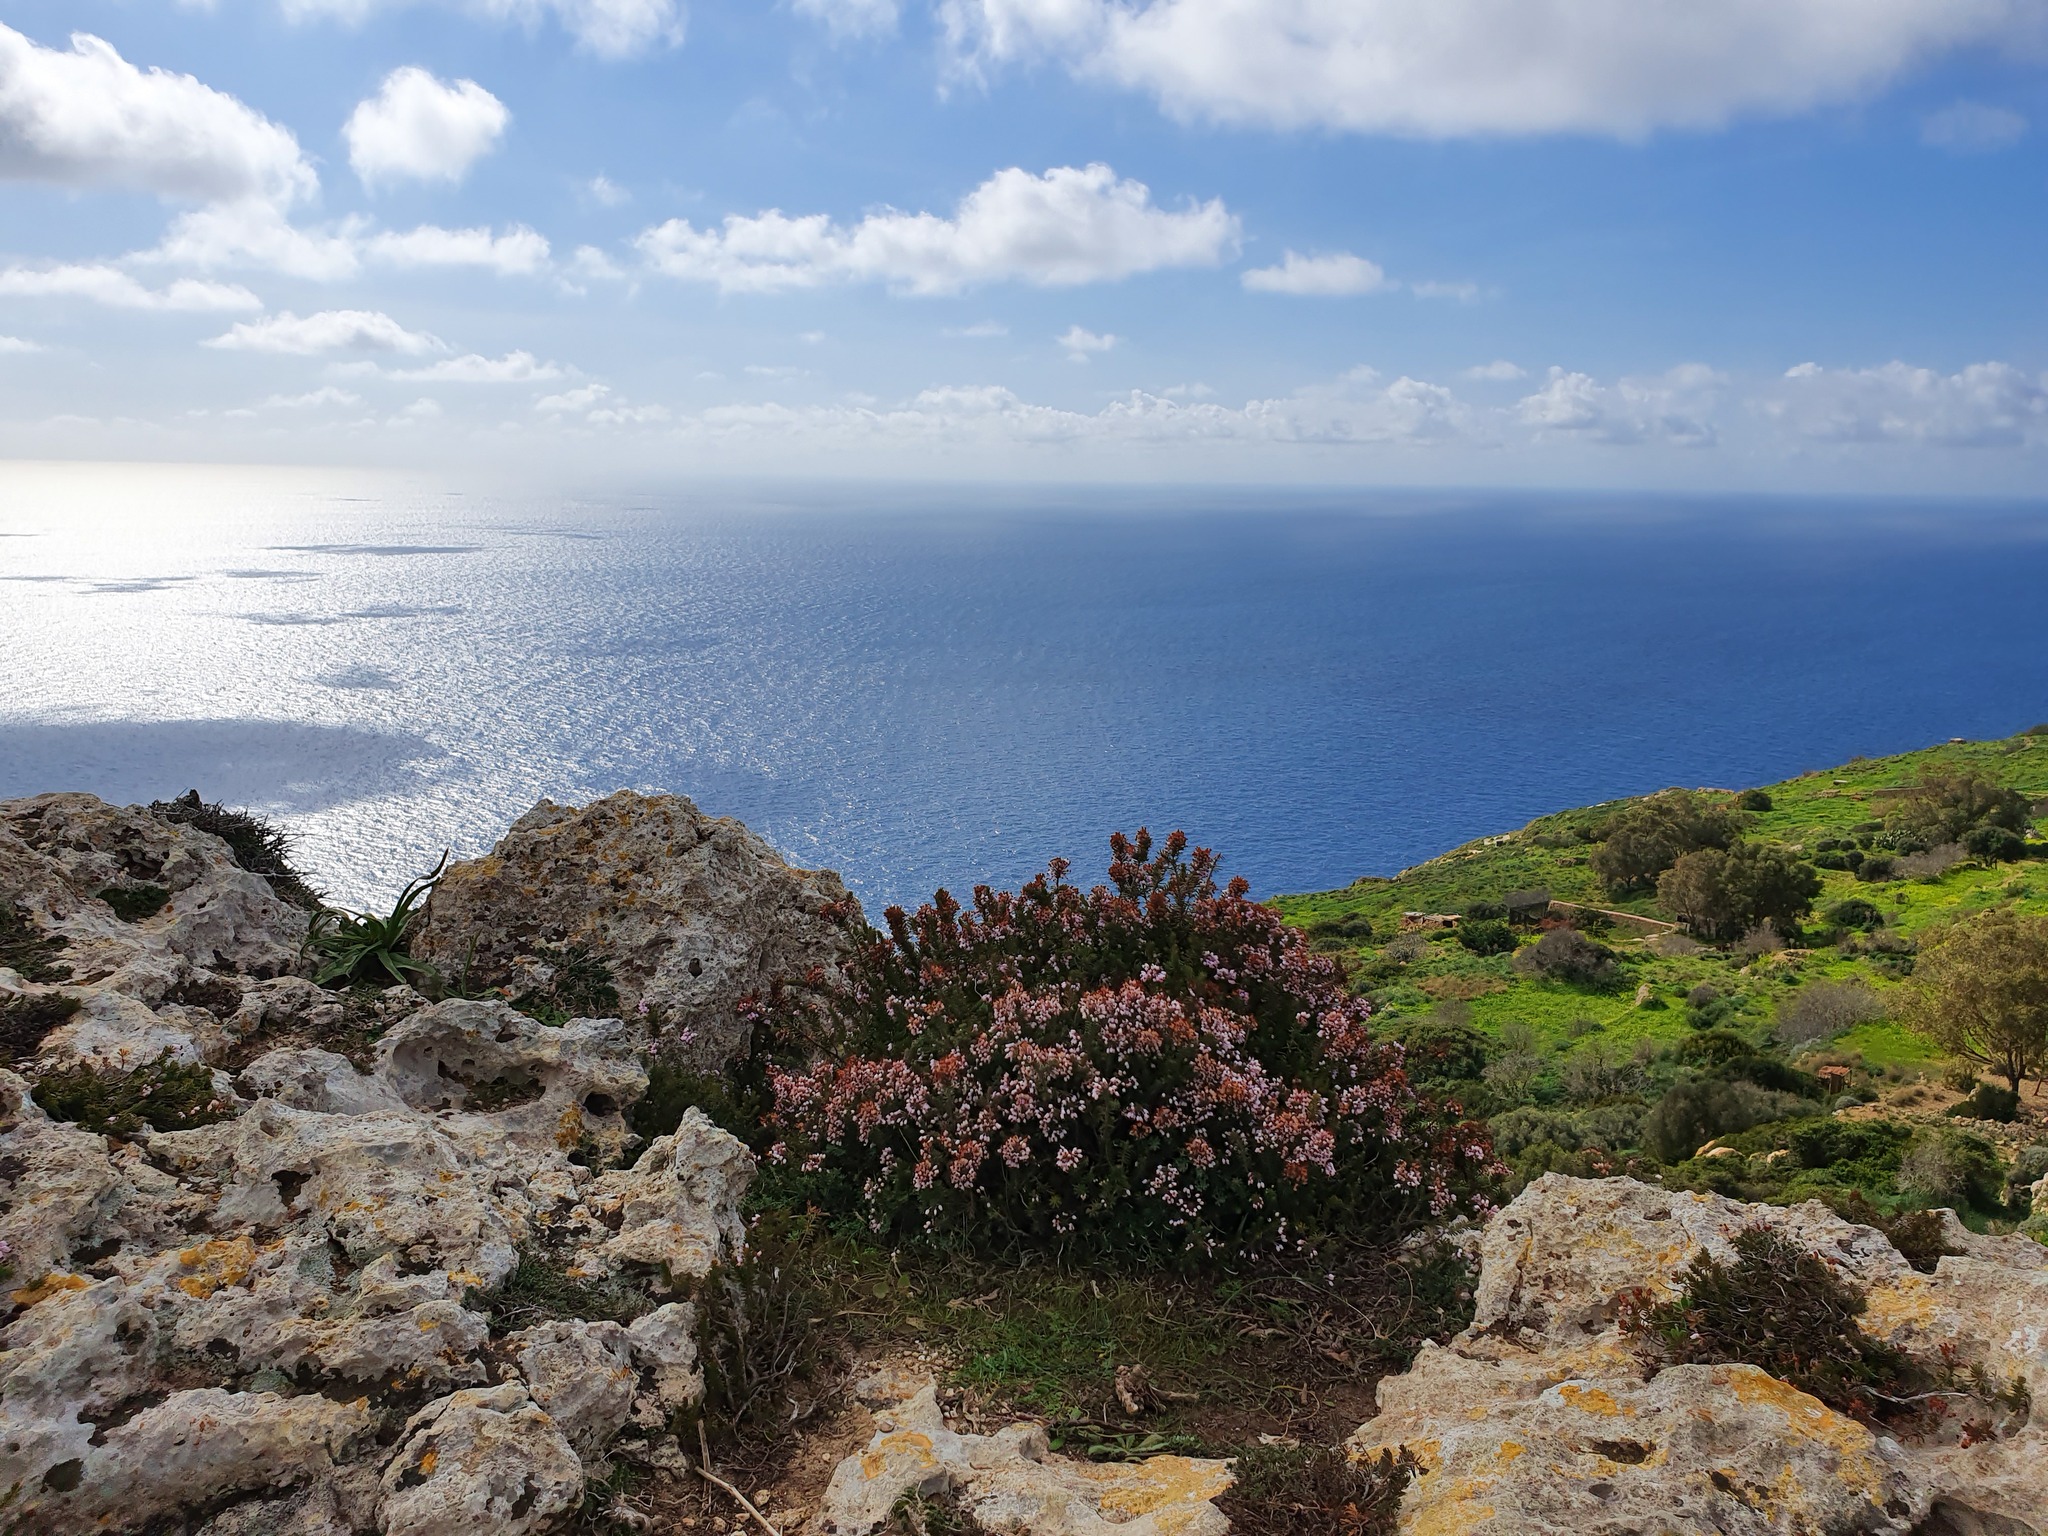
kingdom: Plantae
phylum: Tracheophyta
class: Magnoliopsida
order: Ericales
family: Ericaceae
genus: Erica
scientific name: Erica multiflora
